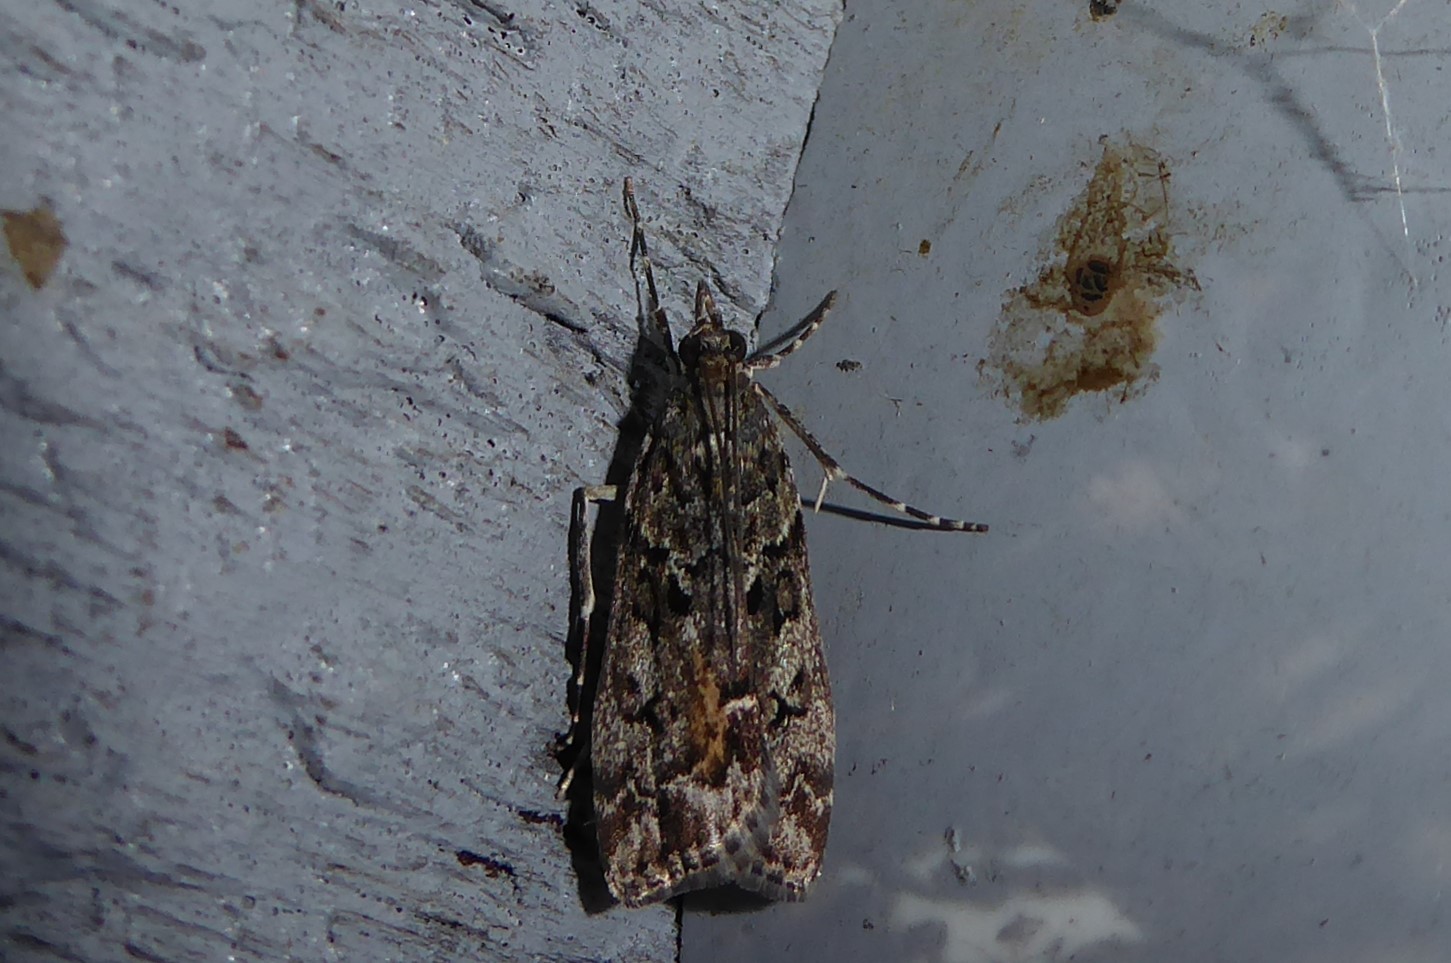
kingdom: Animalia
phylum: Arthropoda
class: Insecta
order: Lepidoptera
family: Crambidae
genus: Eudonia
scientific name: Eudonia submarginalis
